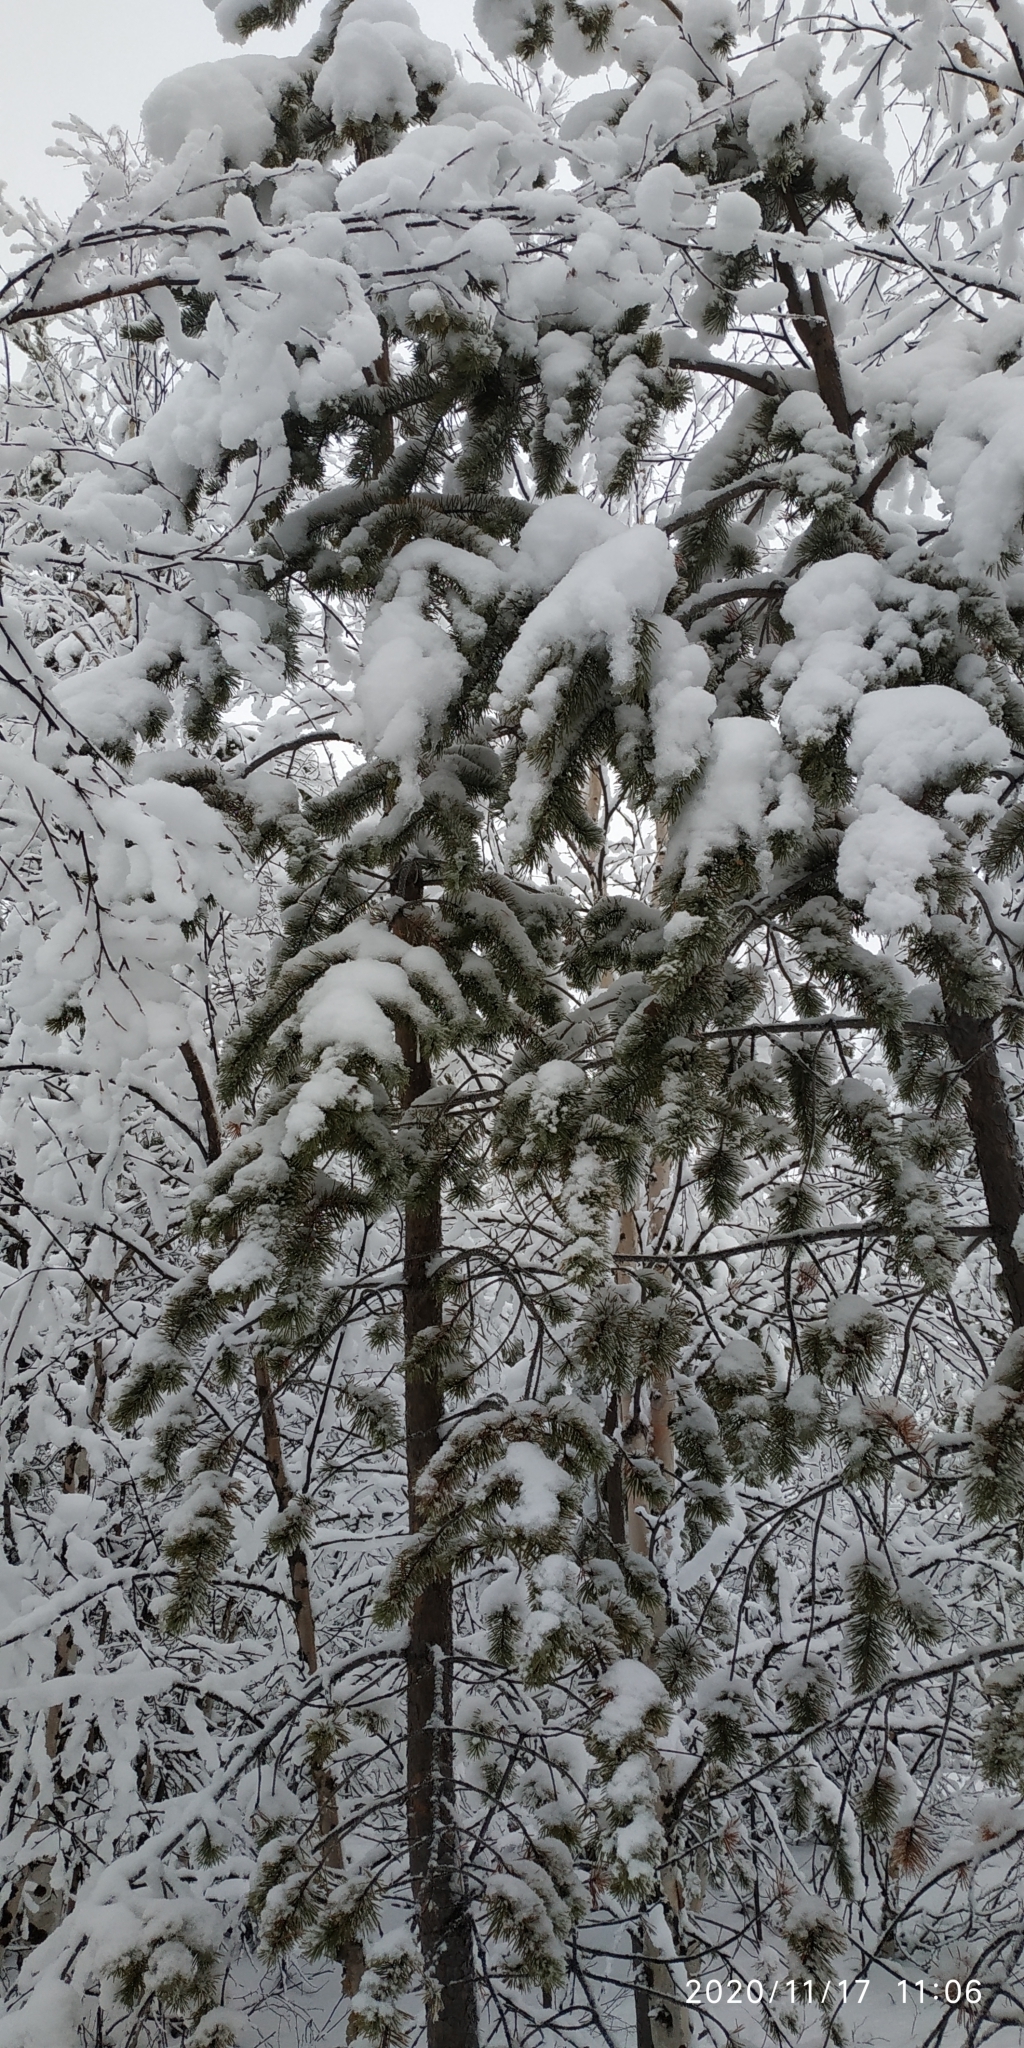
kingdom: Plantae
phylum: Tracheophyta
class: Pinopsida
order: Pinales
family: Pinaceae
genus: Pinus
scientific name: Pinus sylvestris
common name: Scots pine
